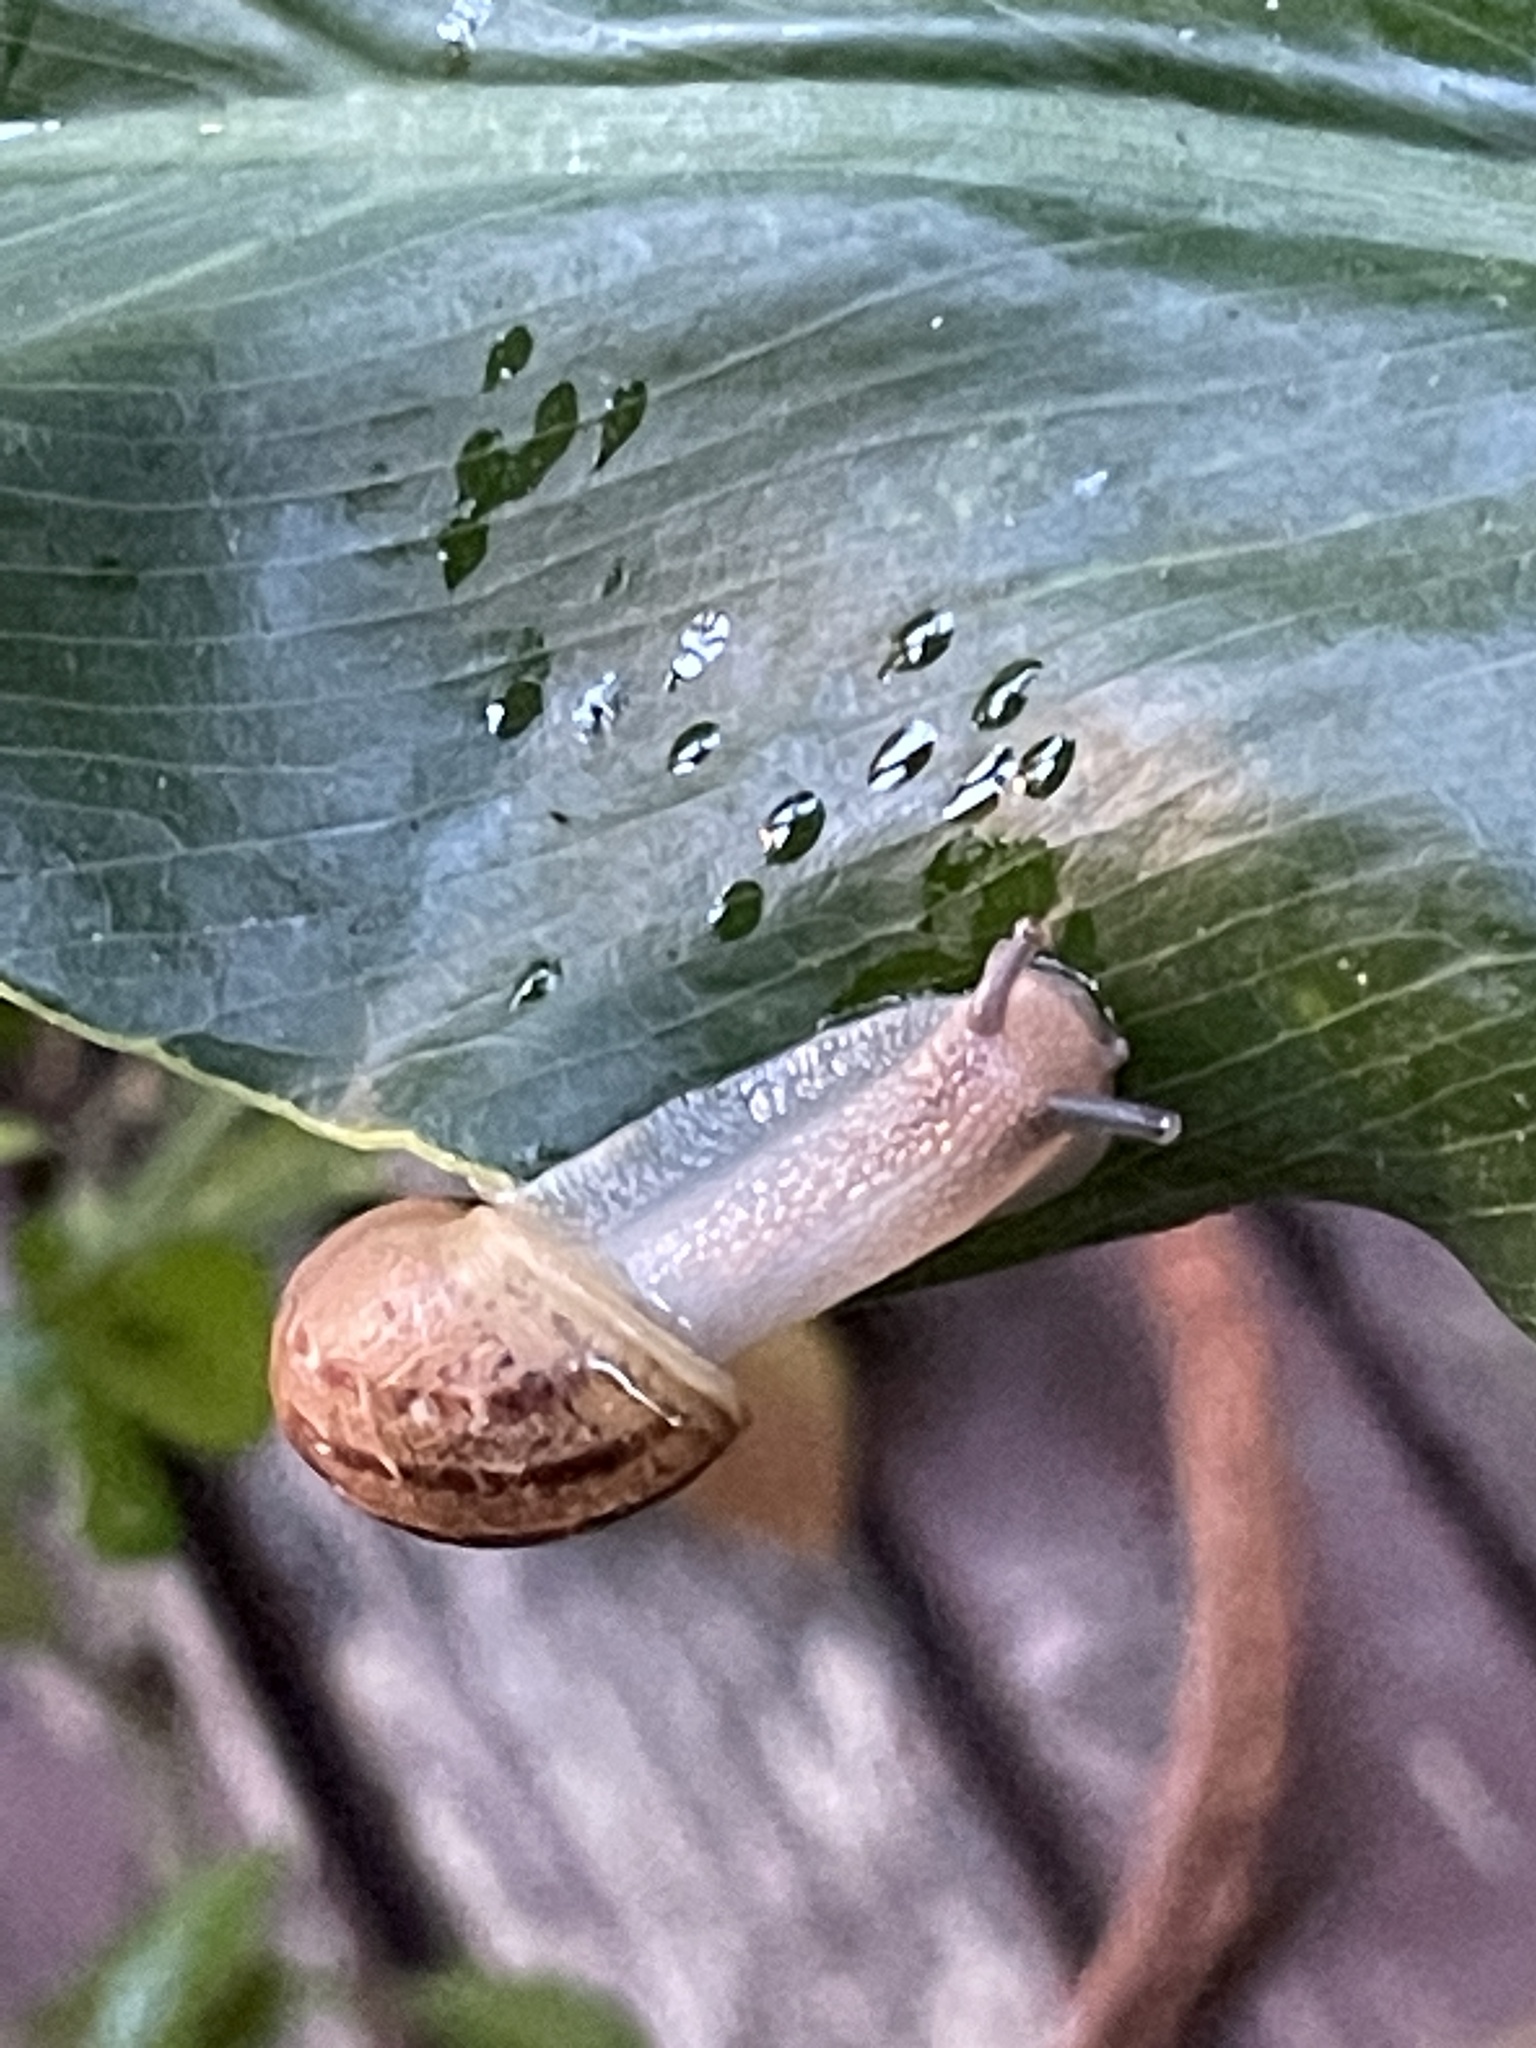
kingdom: Animalia
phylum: Mollusca
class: Gastropoda
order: Stylommatophora
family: Helicidae
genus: Cornu
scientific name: Cornu aspersum
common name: Brown garden snail
